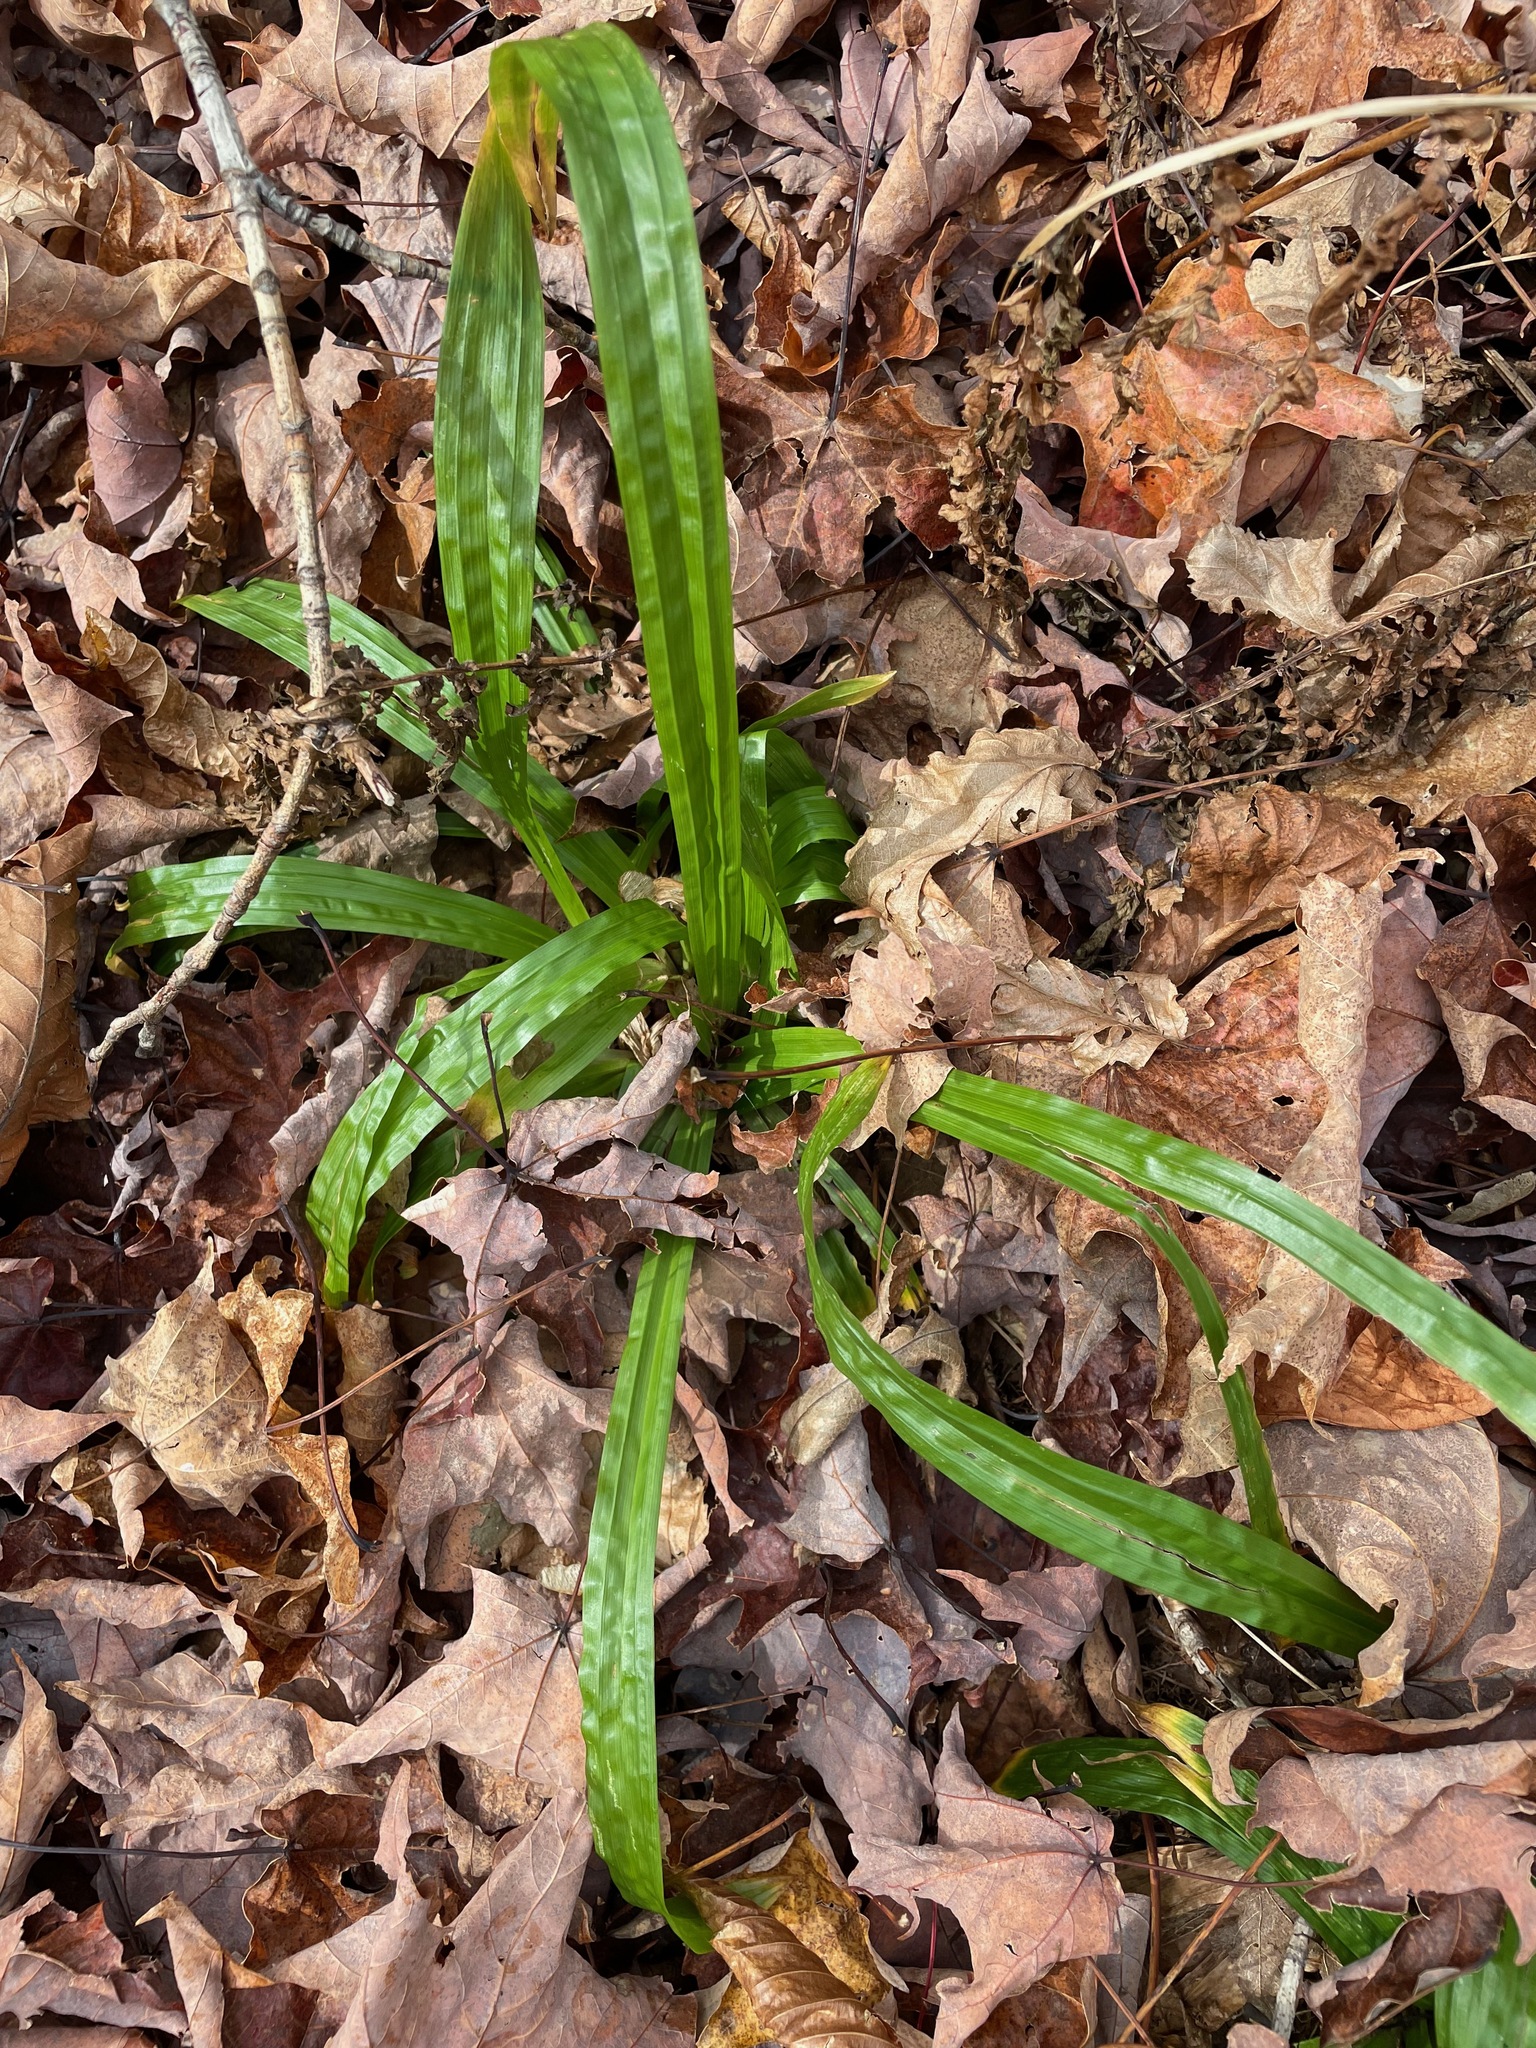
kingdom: Plantae
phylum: Tracheophyta
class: Liliopsida
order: Poales
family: Cyperaceae
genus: Carex
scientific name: Carex plantaginea
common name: Plantain-leaved sedge
